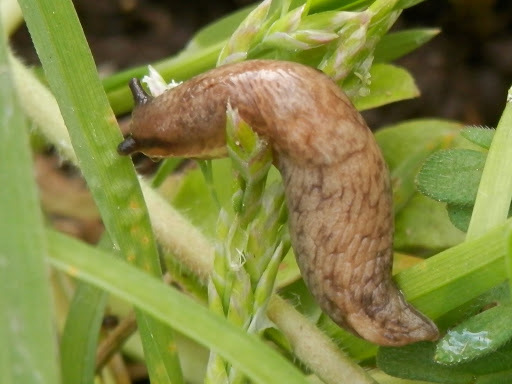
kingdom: Animalia
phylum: Mollusca
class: Gastropoda
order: Stylommatophora
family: Agriolimacidae
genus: Deroceras
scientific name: Deroceras reticulatum
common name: Gray field slug
